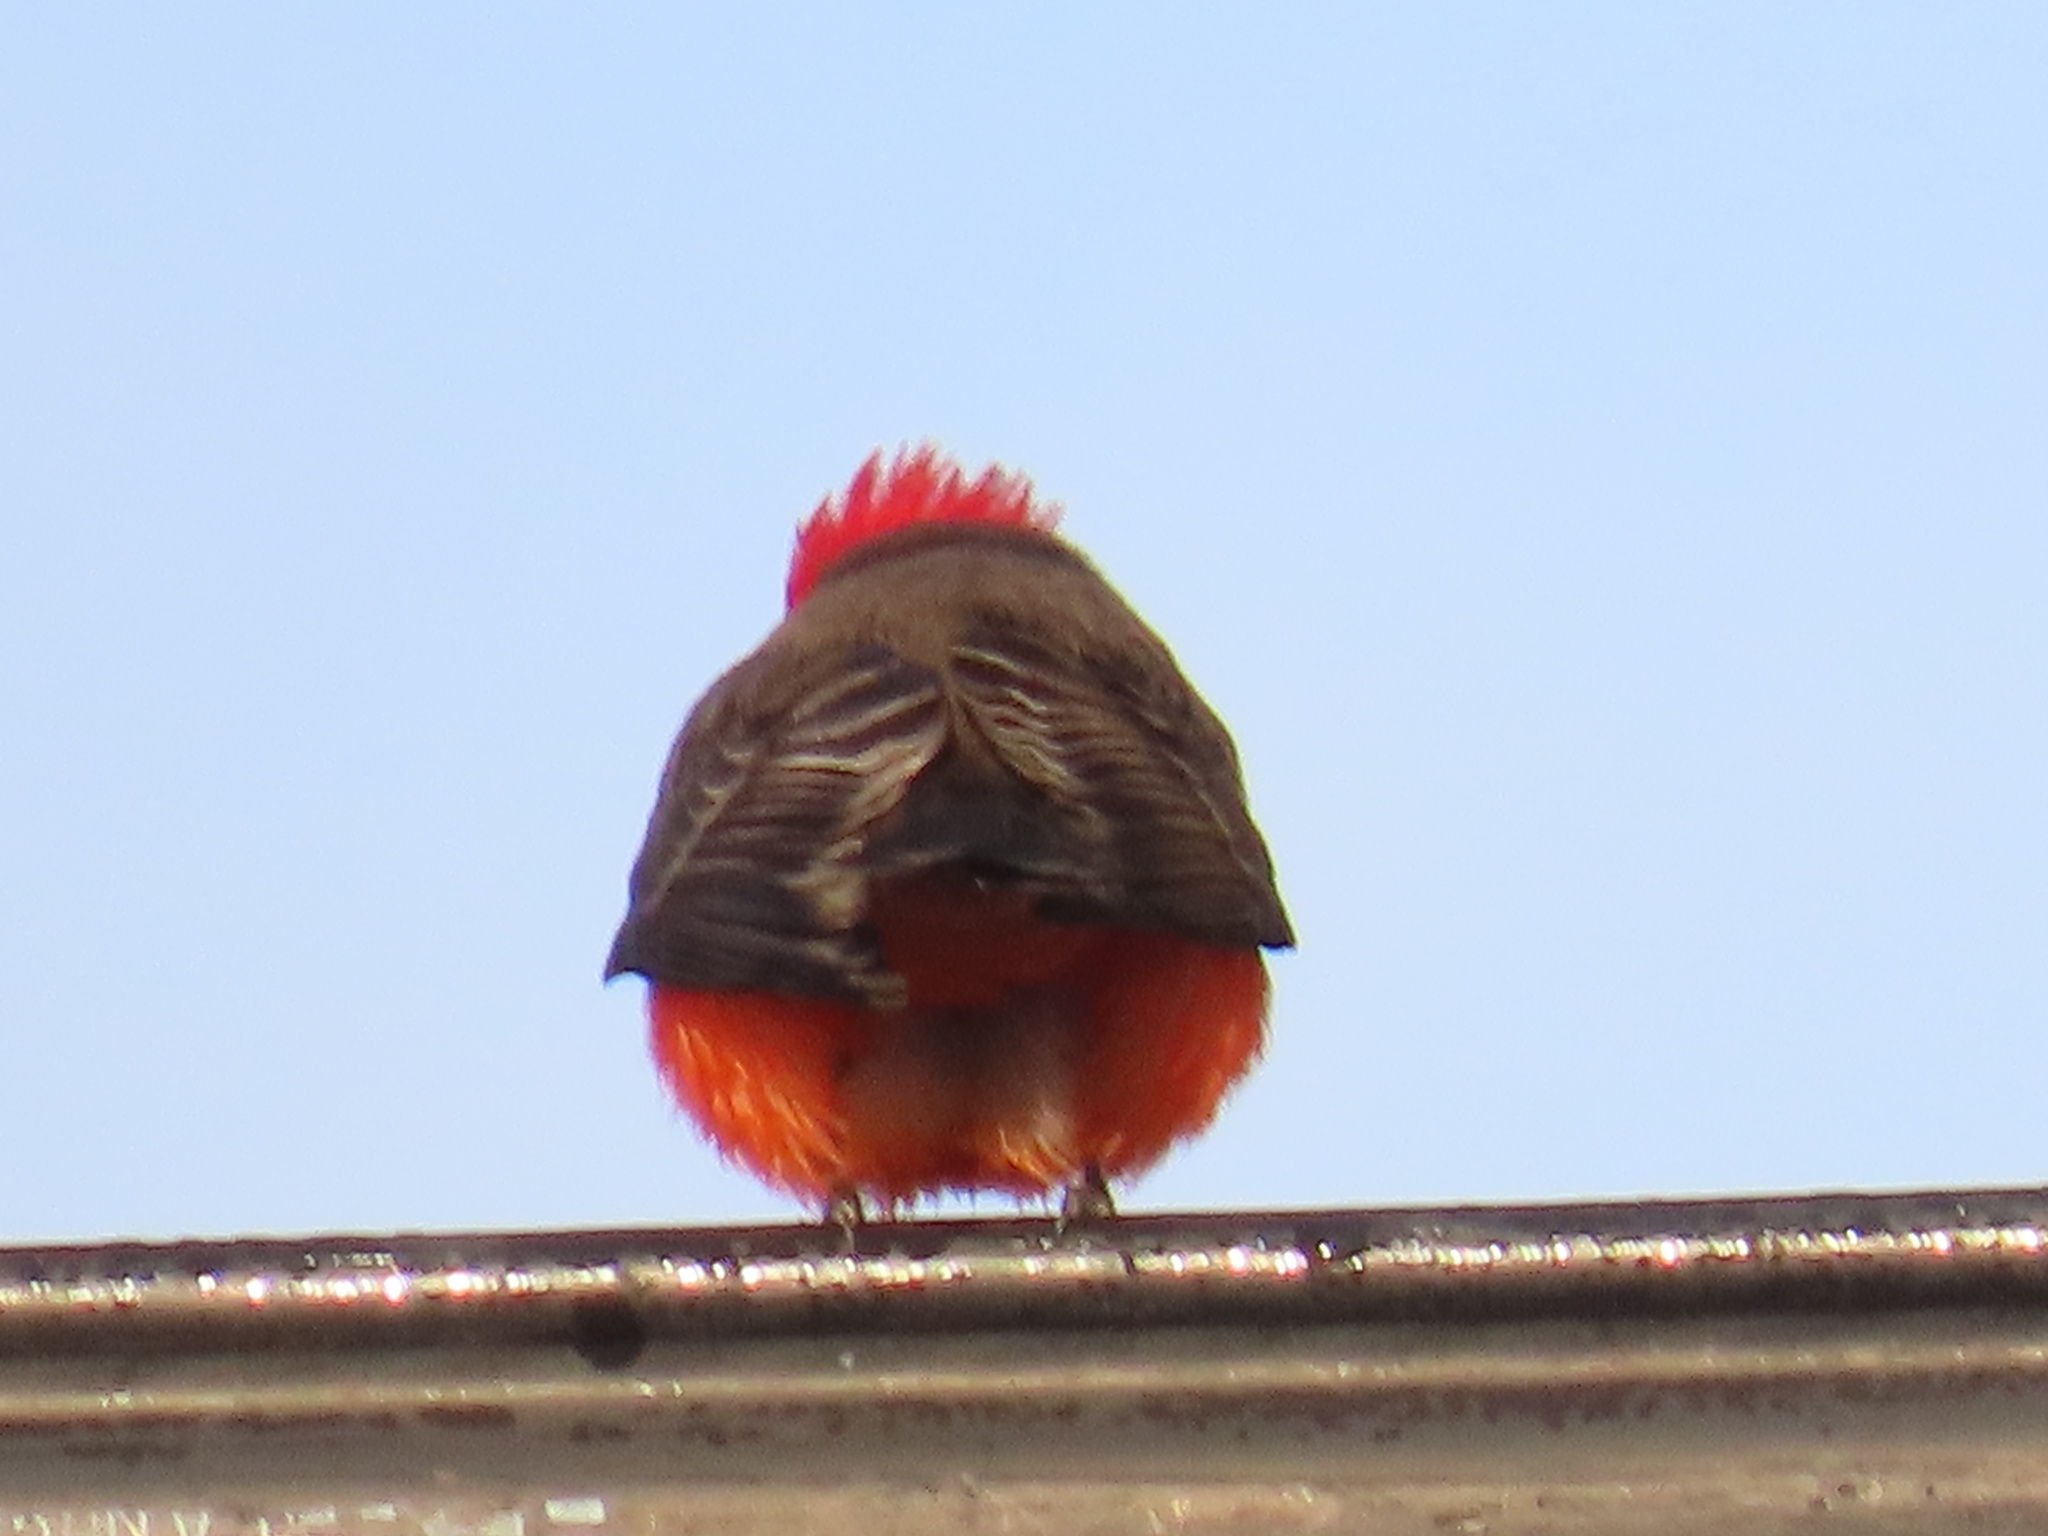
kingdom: Animalia
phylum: Chordata
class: Aves
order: Passeriformes
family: Tyrannidae
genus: Pyrocephalus
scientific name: Pyrocephalus rubinus
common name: Vermilion flycatcher
